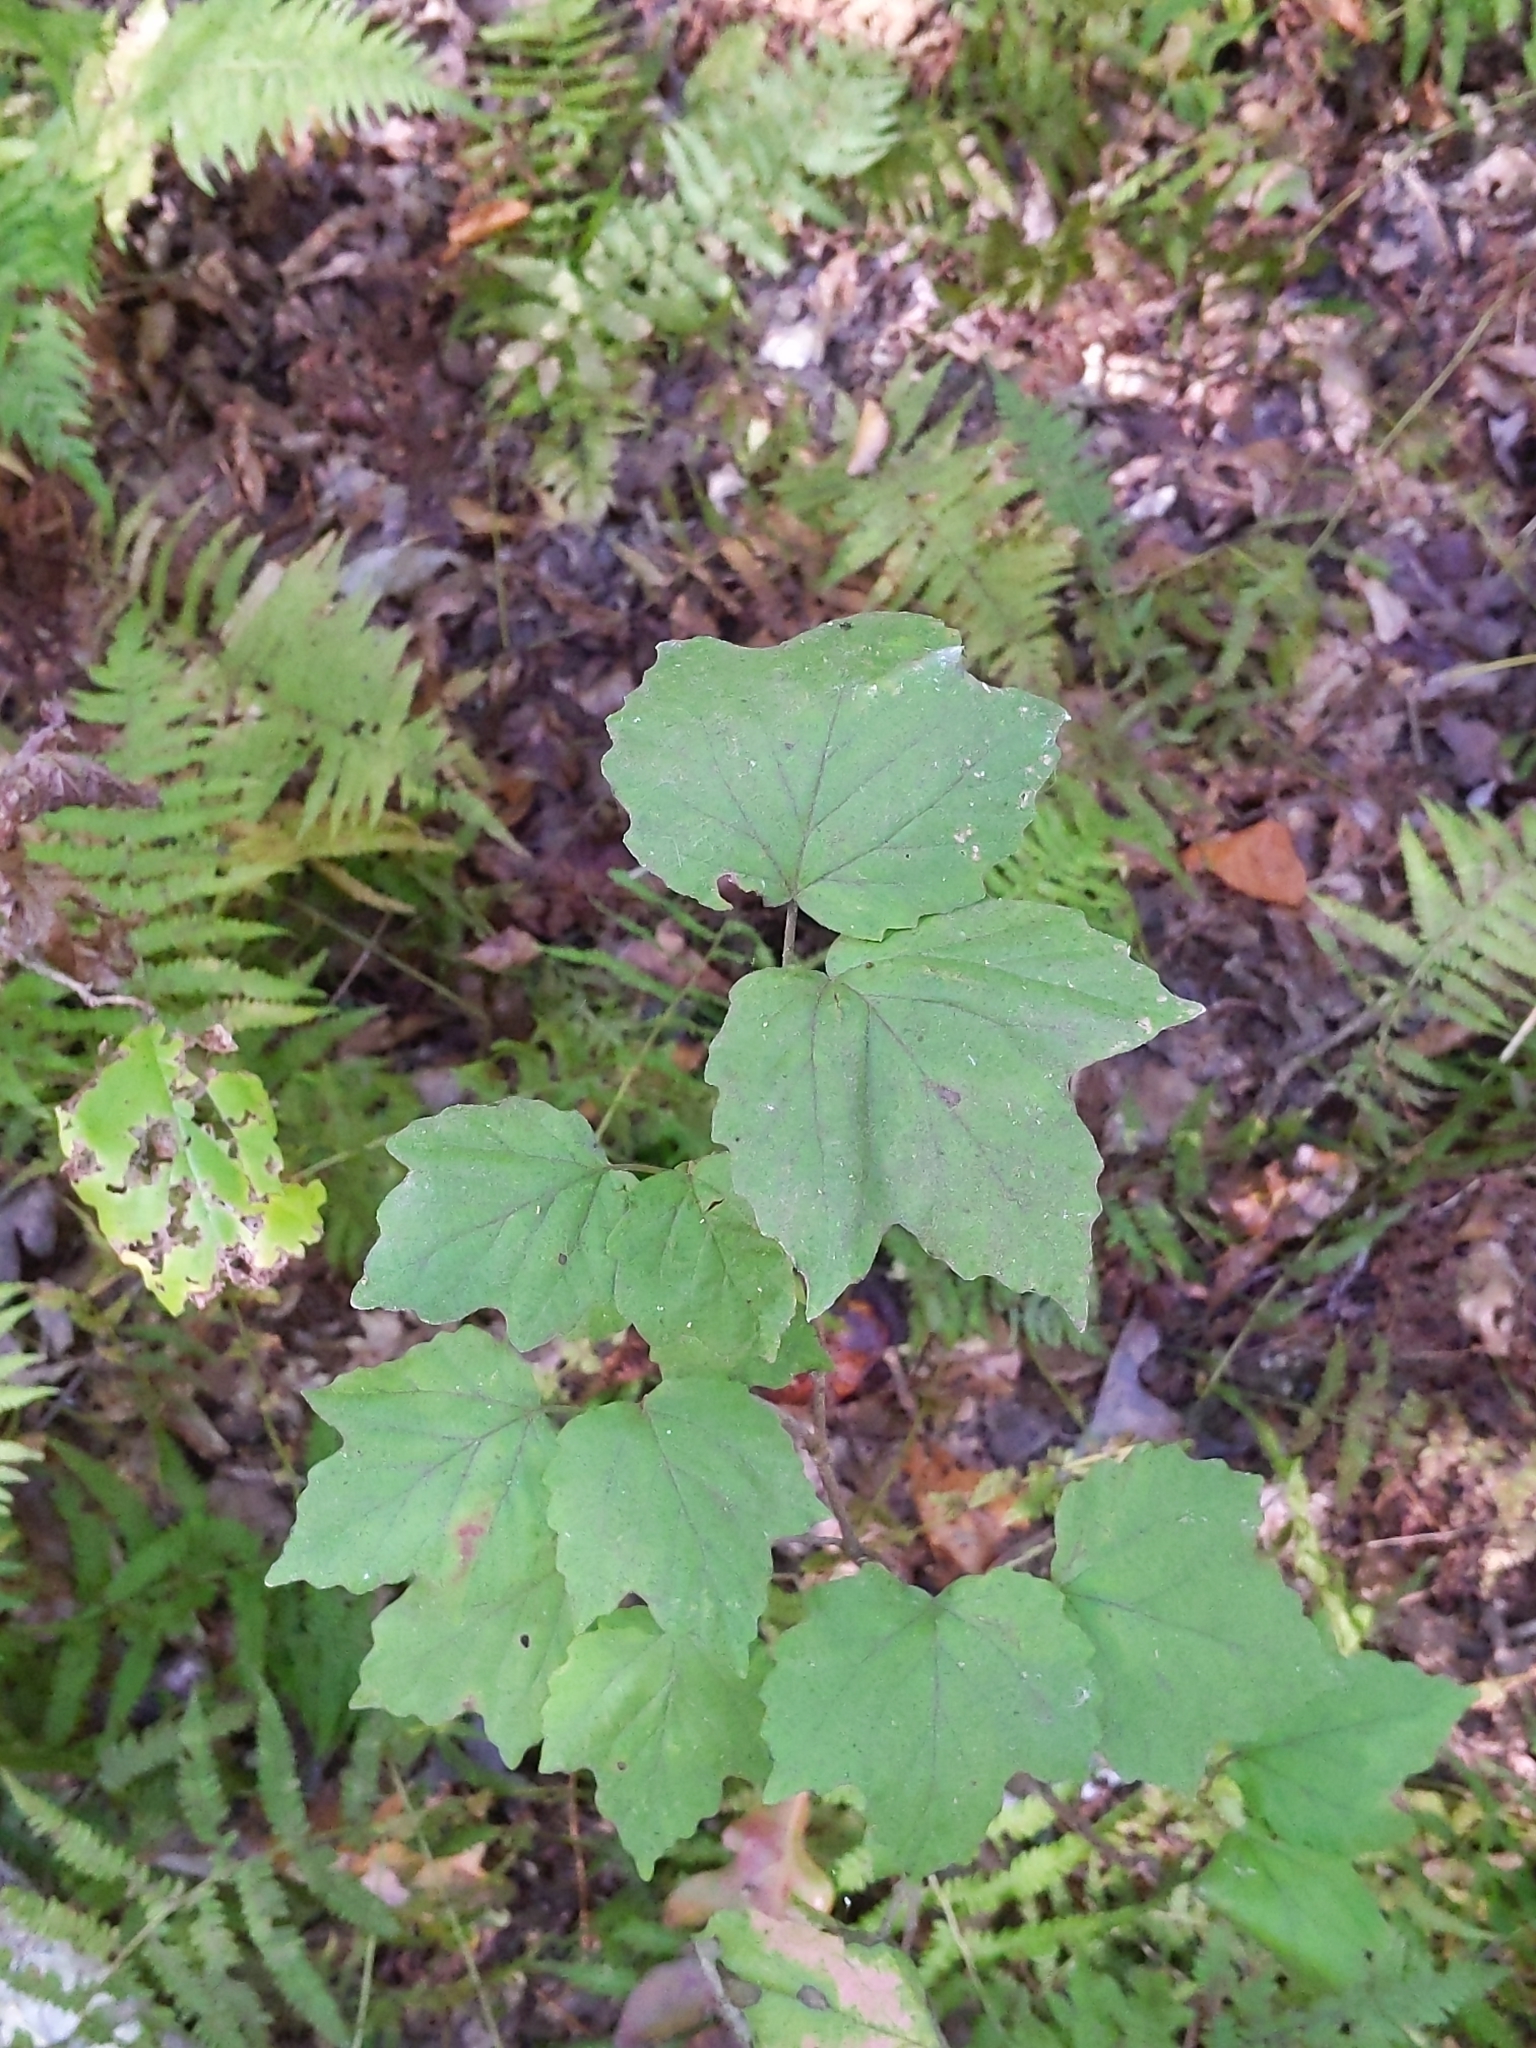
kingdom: Plantae
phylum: Tracheophyta
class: Magnoliopsida
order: Dipsacales
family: Viburnaceae
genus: Viburnum
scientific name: Viburnum acerifolium
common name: Dockmackie
